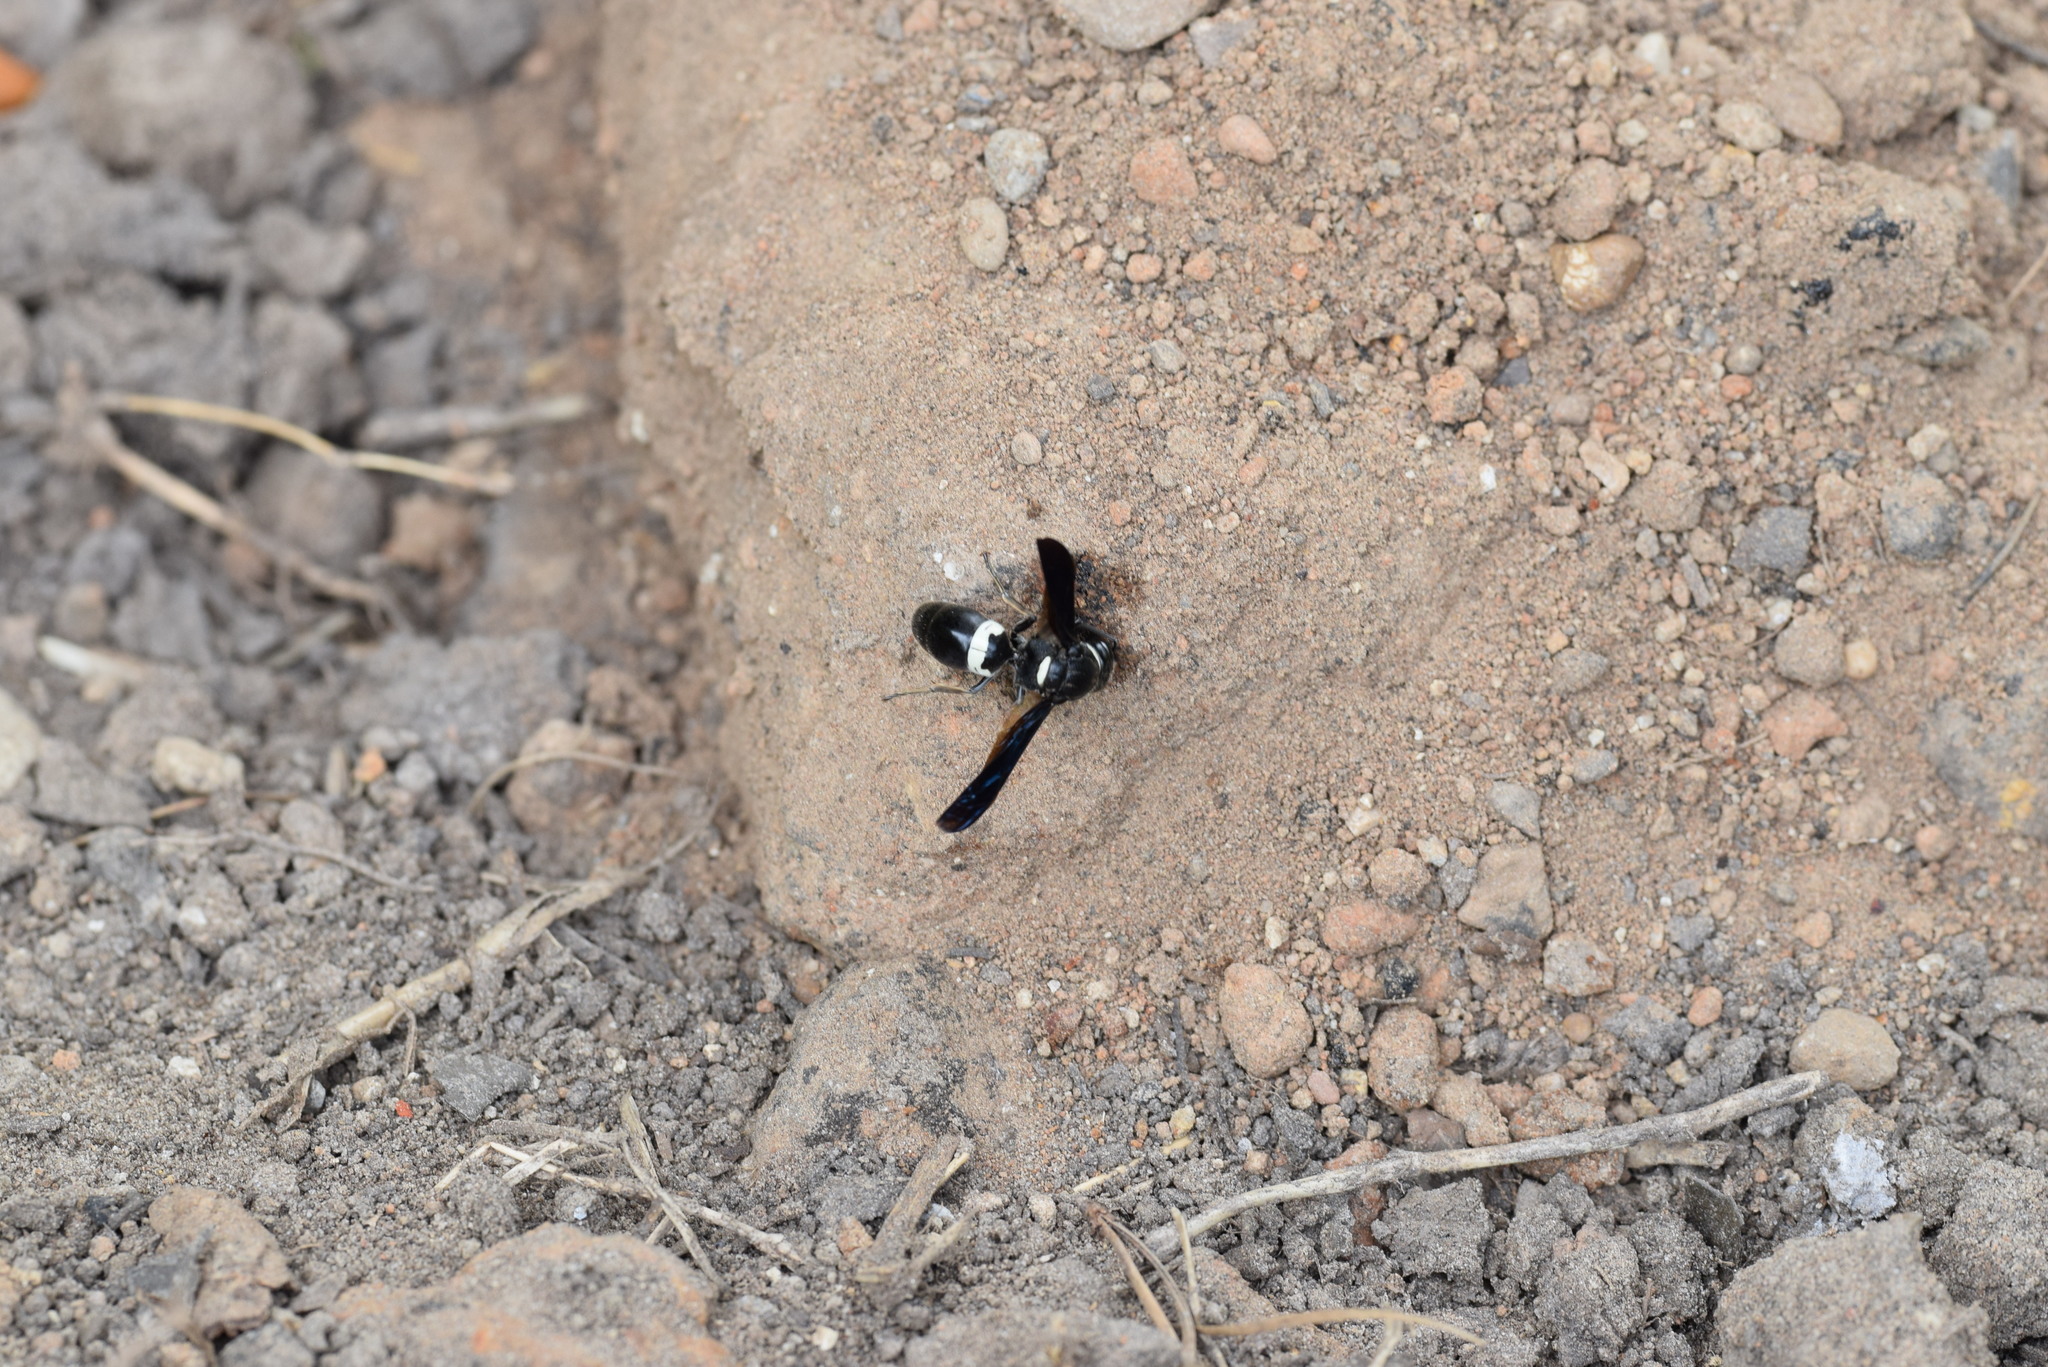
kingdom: Animalia
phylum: Arthropoda
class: Insecta
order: Hymenoptera
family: Eumenidae
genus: Monobia
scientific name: Monobia quadridens
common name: Four-toothed mason wasp
